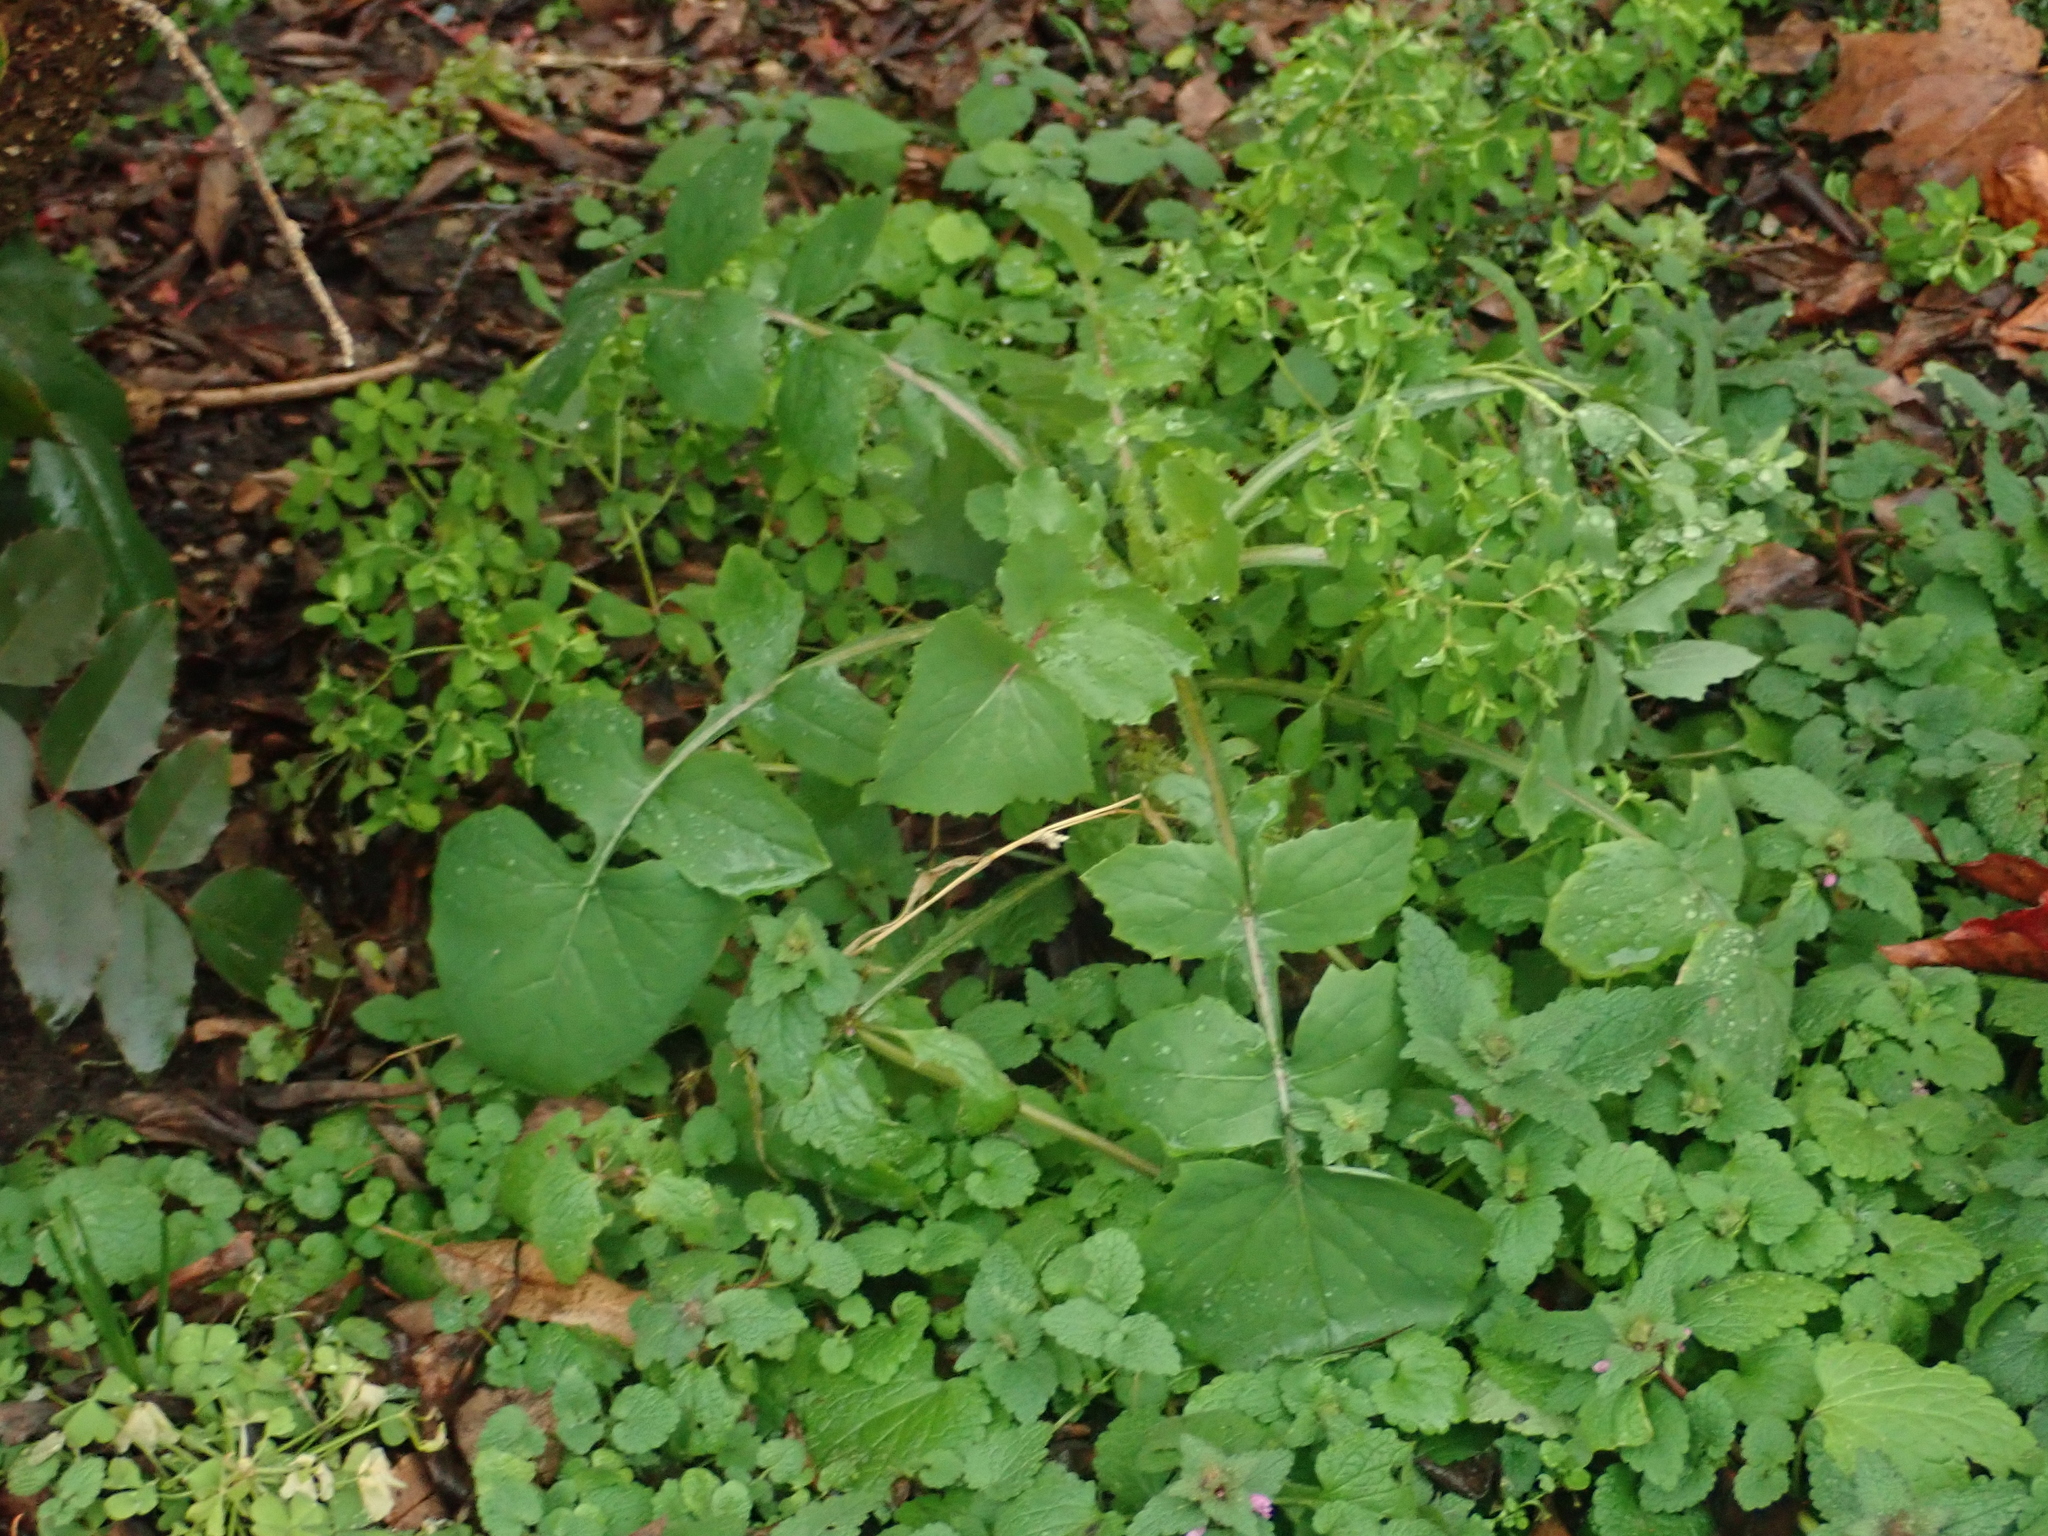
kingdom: Plantae
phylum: Tracheophyta
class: Magnoliopsida
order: Asterales
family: Asteraceae
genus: Sonchus
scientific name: Sonchus oleraceus
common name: Common sowthistle
